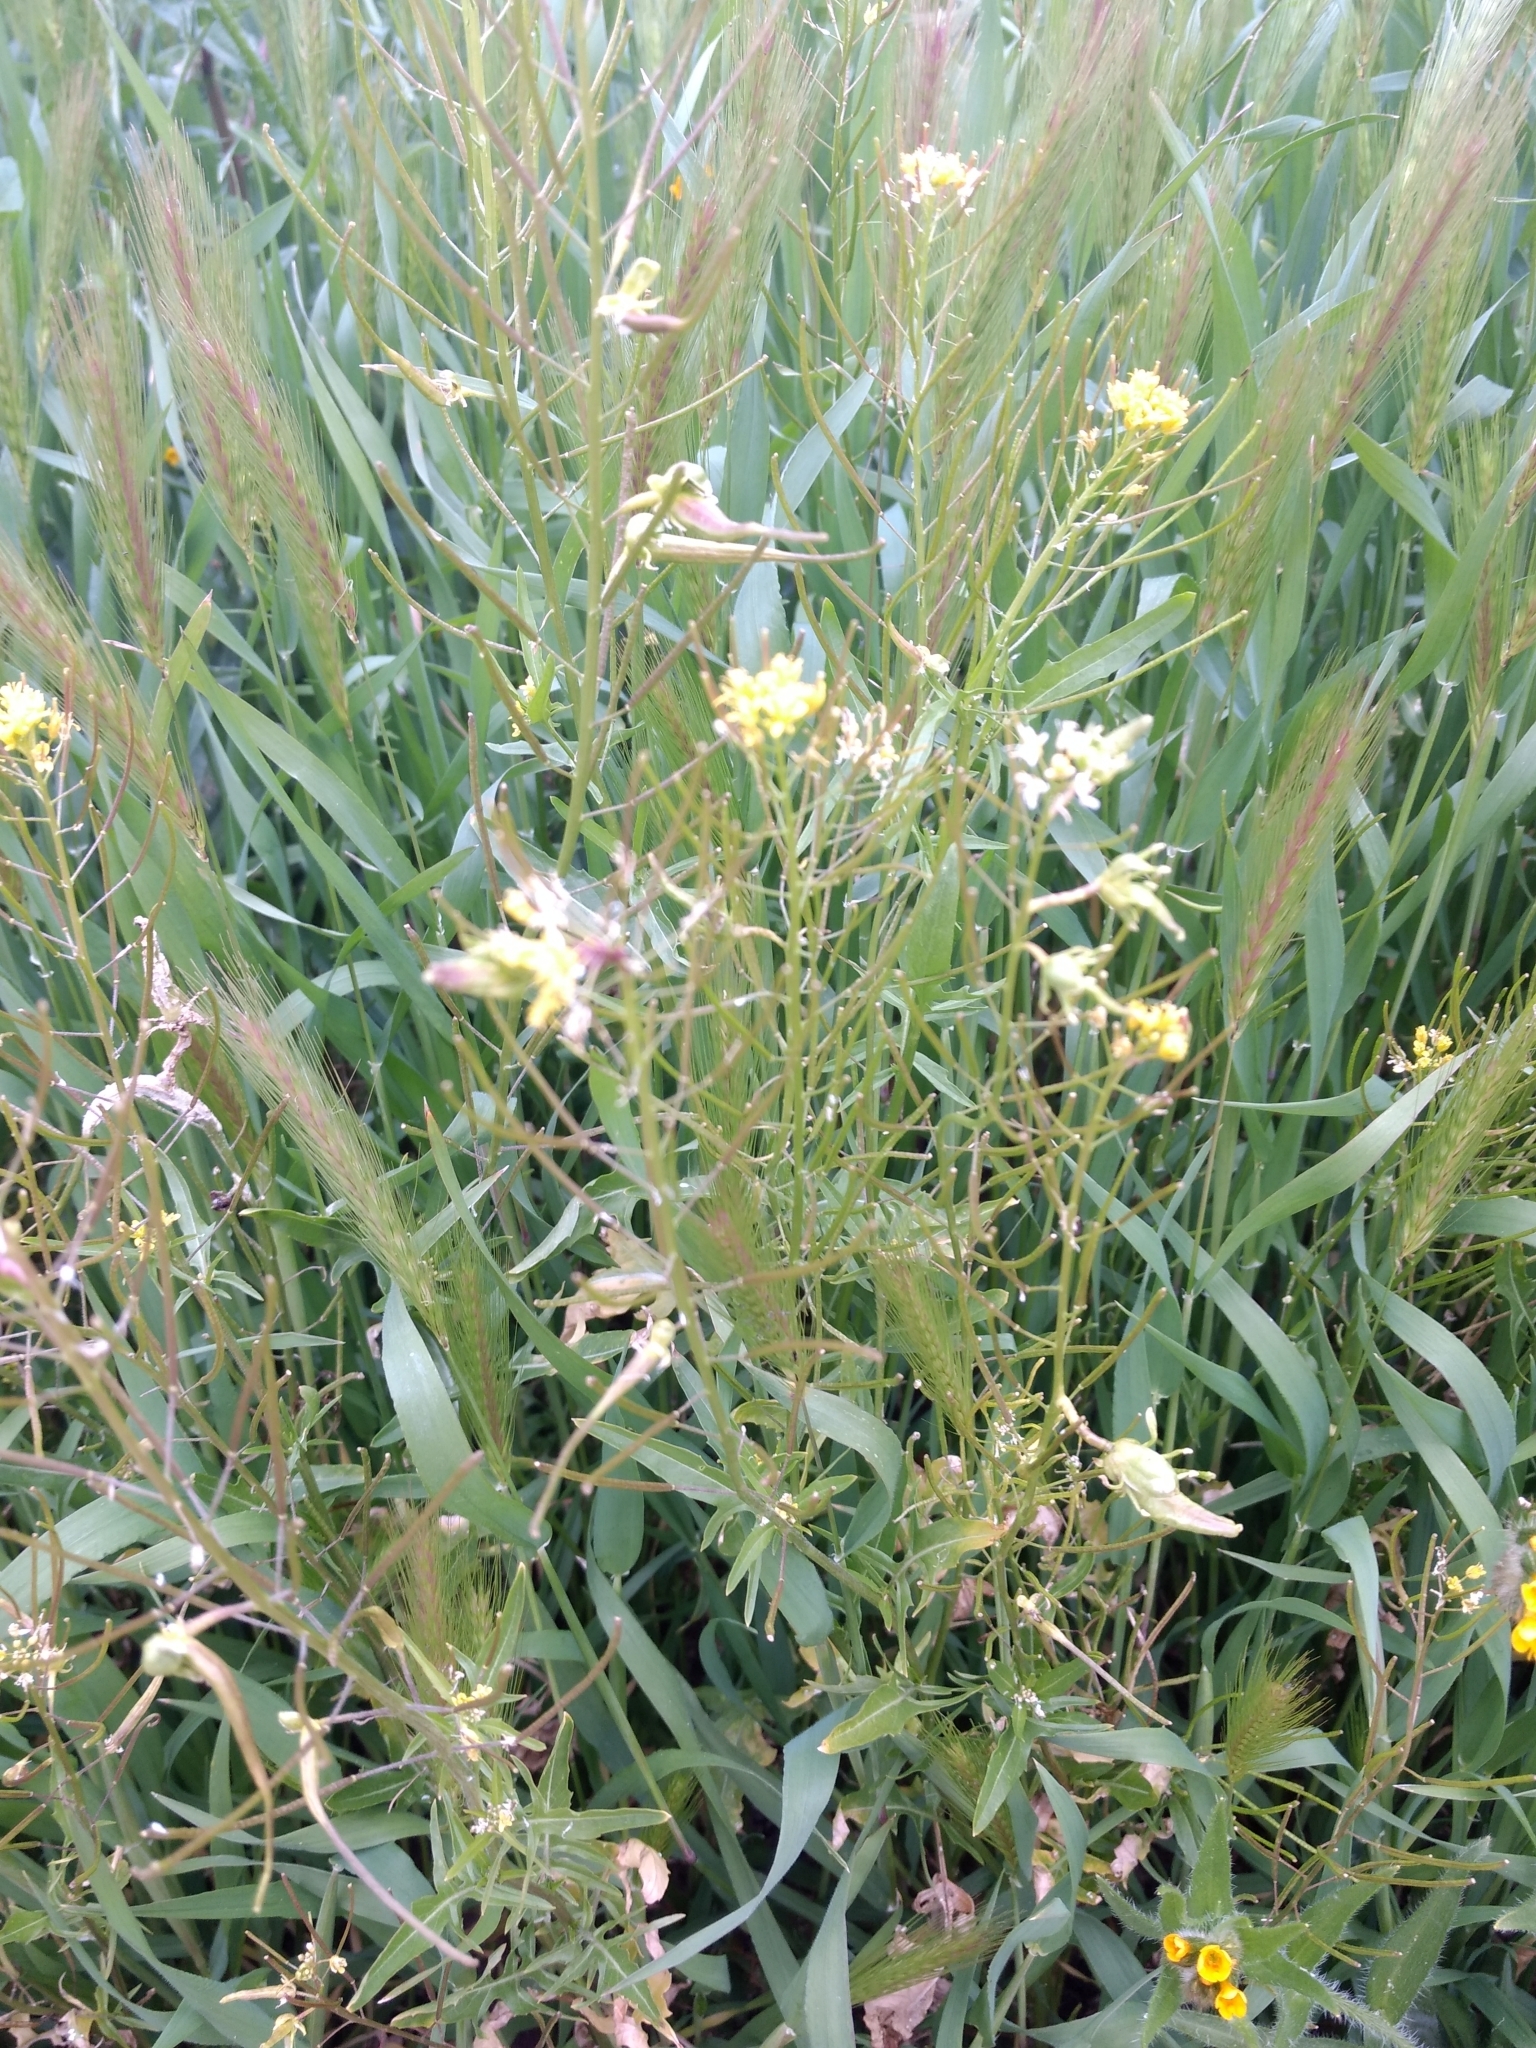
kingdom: Plantae
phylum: Tracheophyta
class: Magnoliopsida
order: Brassicales
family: Brassicaceae
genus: Sisymbrium
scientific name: Sisymbrium irio
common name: London rocket
